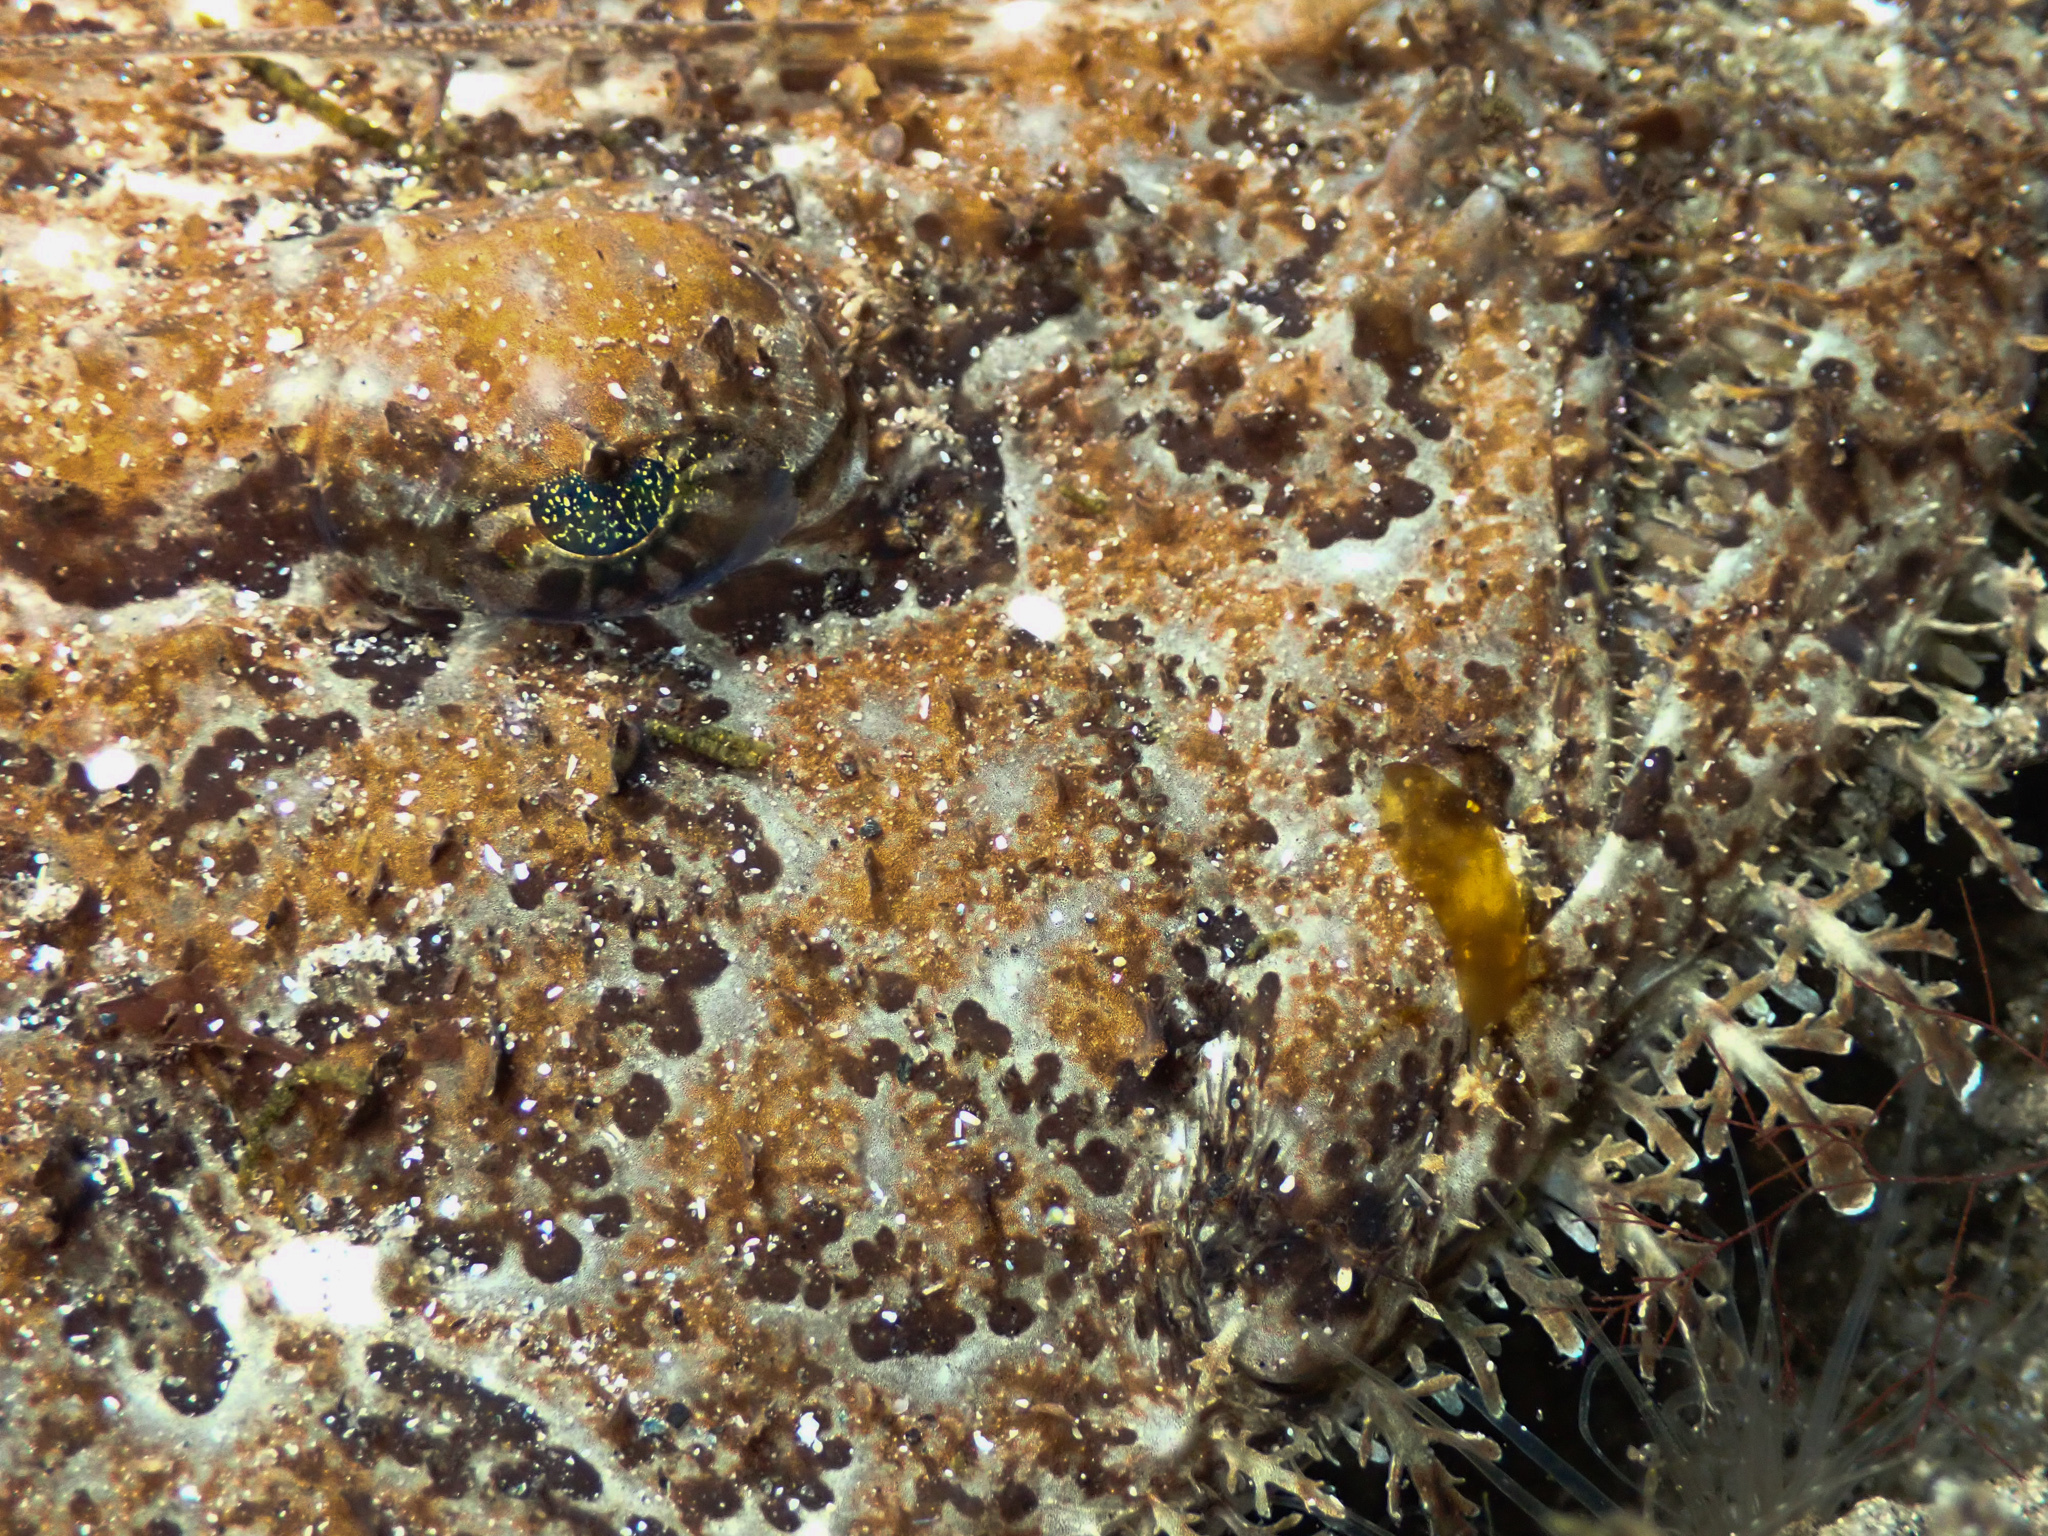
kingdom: Animalia
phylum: Chordata
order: Lophiiformes
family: Lophiidae
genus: Lophius
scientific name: Lophius piscatorius
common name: Angler
